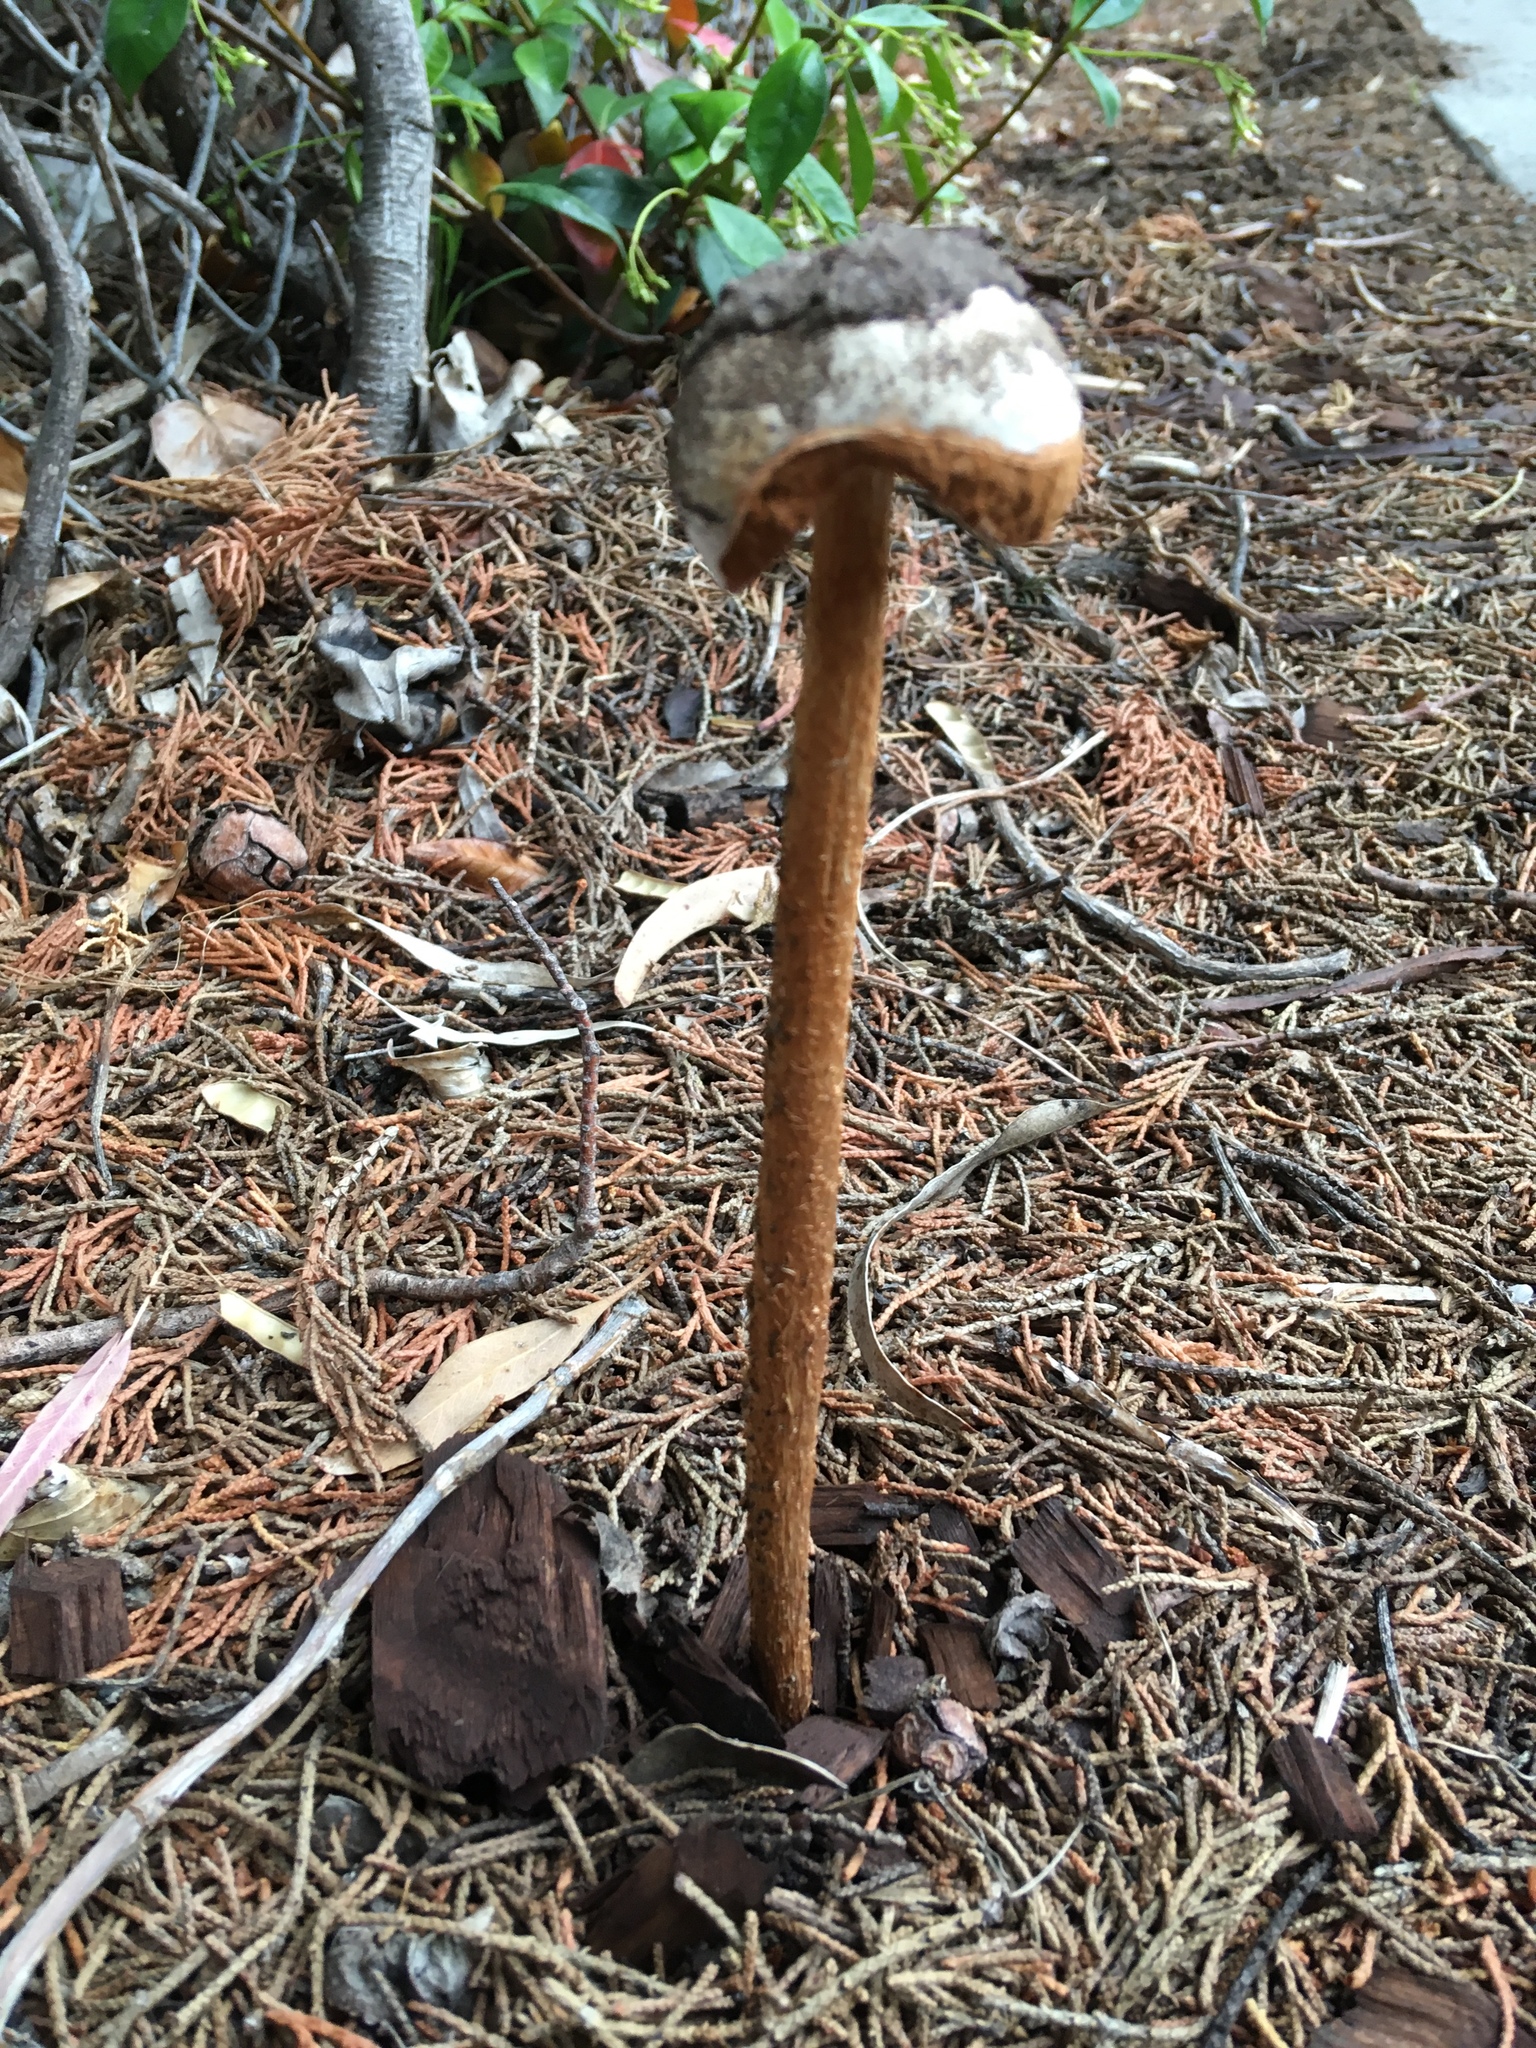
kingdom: Fungi
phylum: Basidiomycota
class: Agaricomycetes
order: Agaricales
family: Agaricaceae
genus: Battarrea
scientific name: Battarrea phalloides
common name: Sandy stiltball
